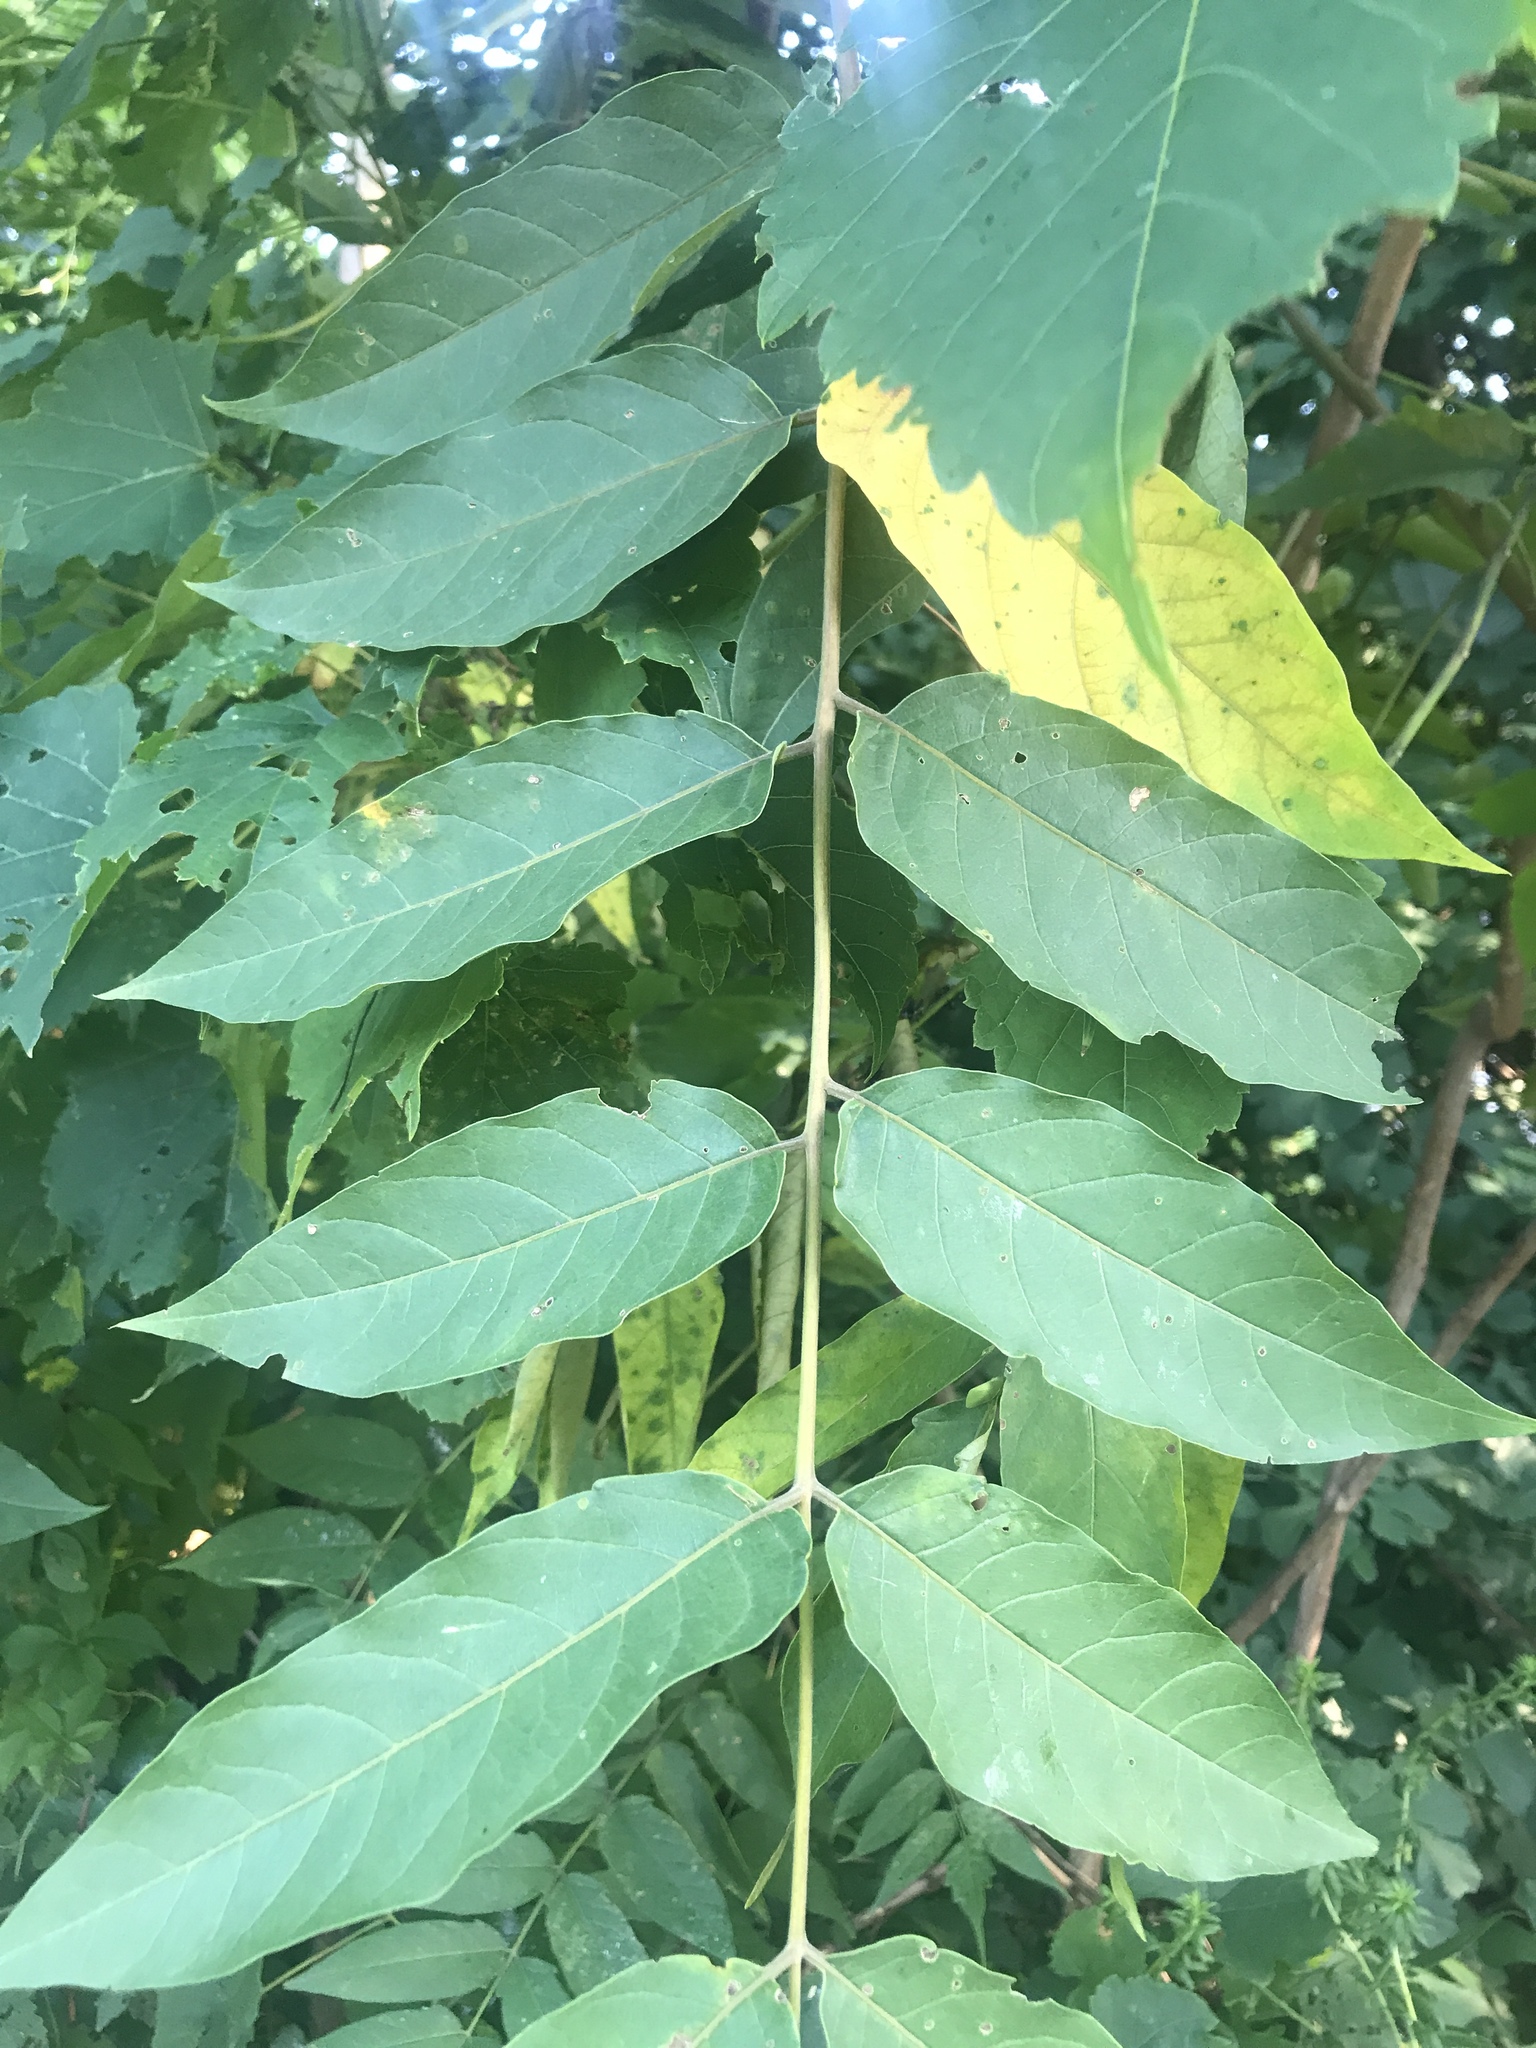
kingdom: Plantae
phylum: Tracheophyta
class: Magnoliopsida
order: Sapindales
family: Simaroubaceae
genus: Ailanthus
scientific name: Ailanthus altissima
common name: Tree-of-heaven
